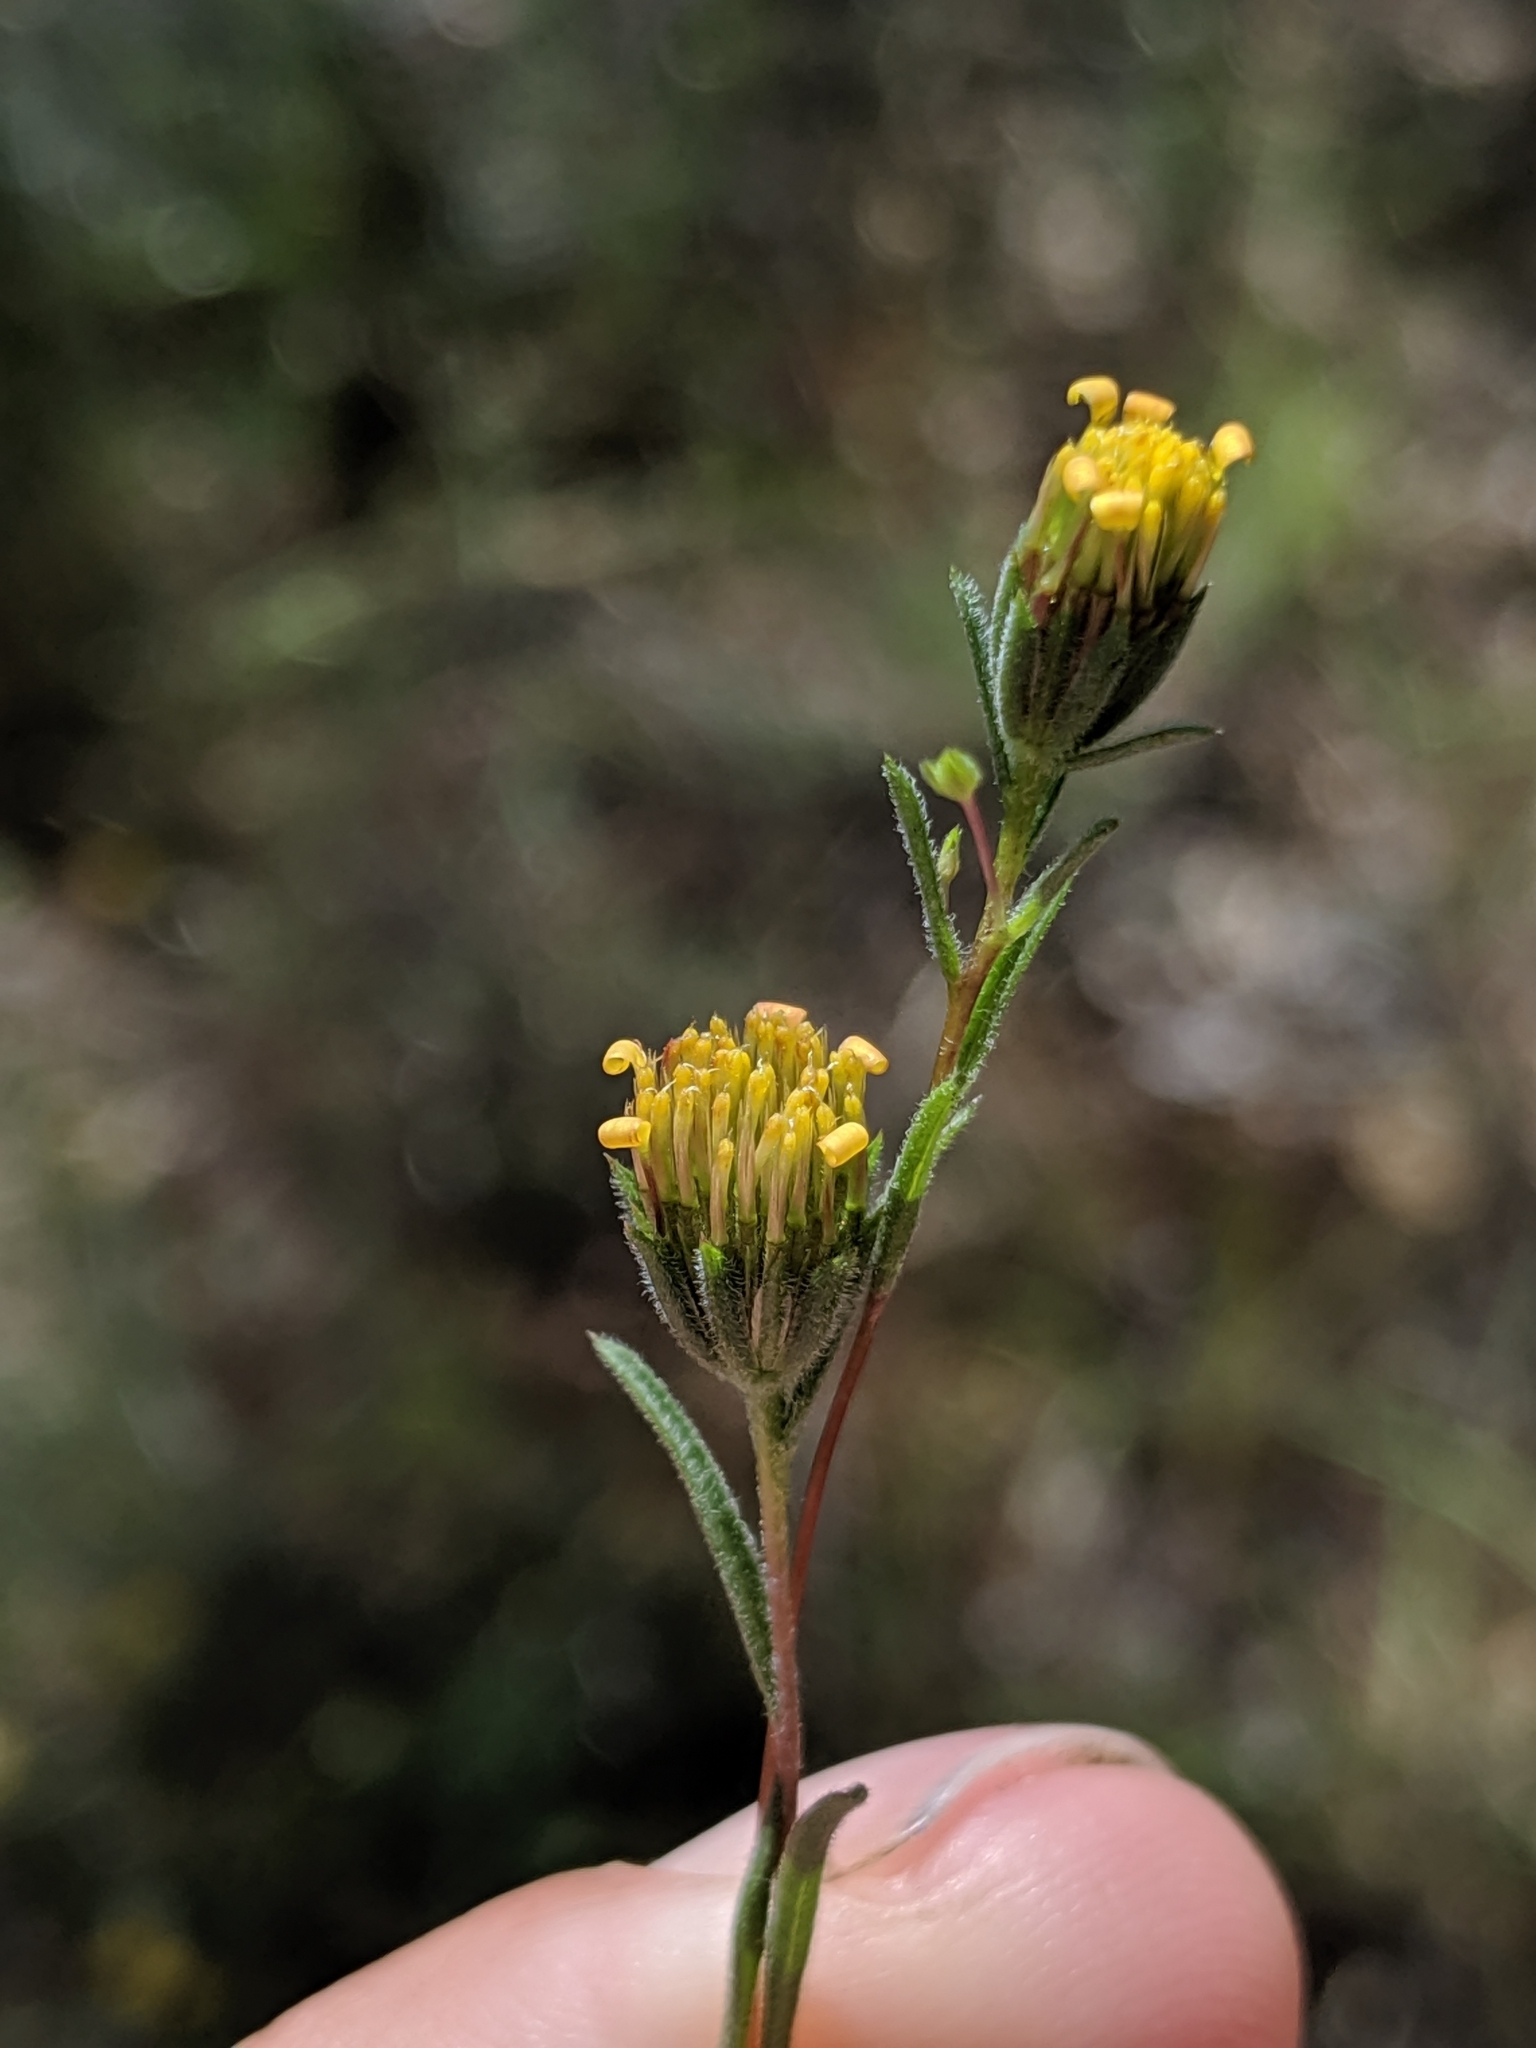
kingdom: Plantae
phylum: Tracheophyta
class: Magnoliopsida
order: Asterales
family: Asteraceae
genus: Rigiopappus
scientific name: Rigiopappus leptocladus
